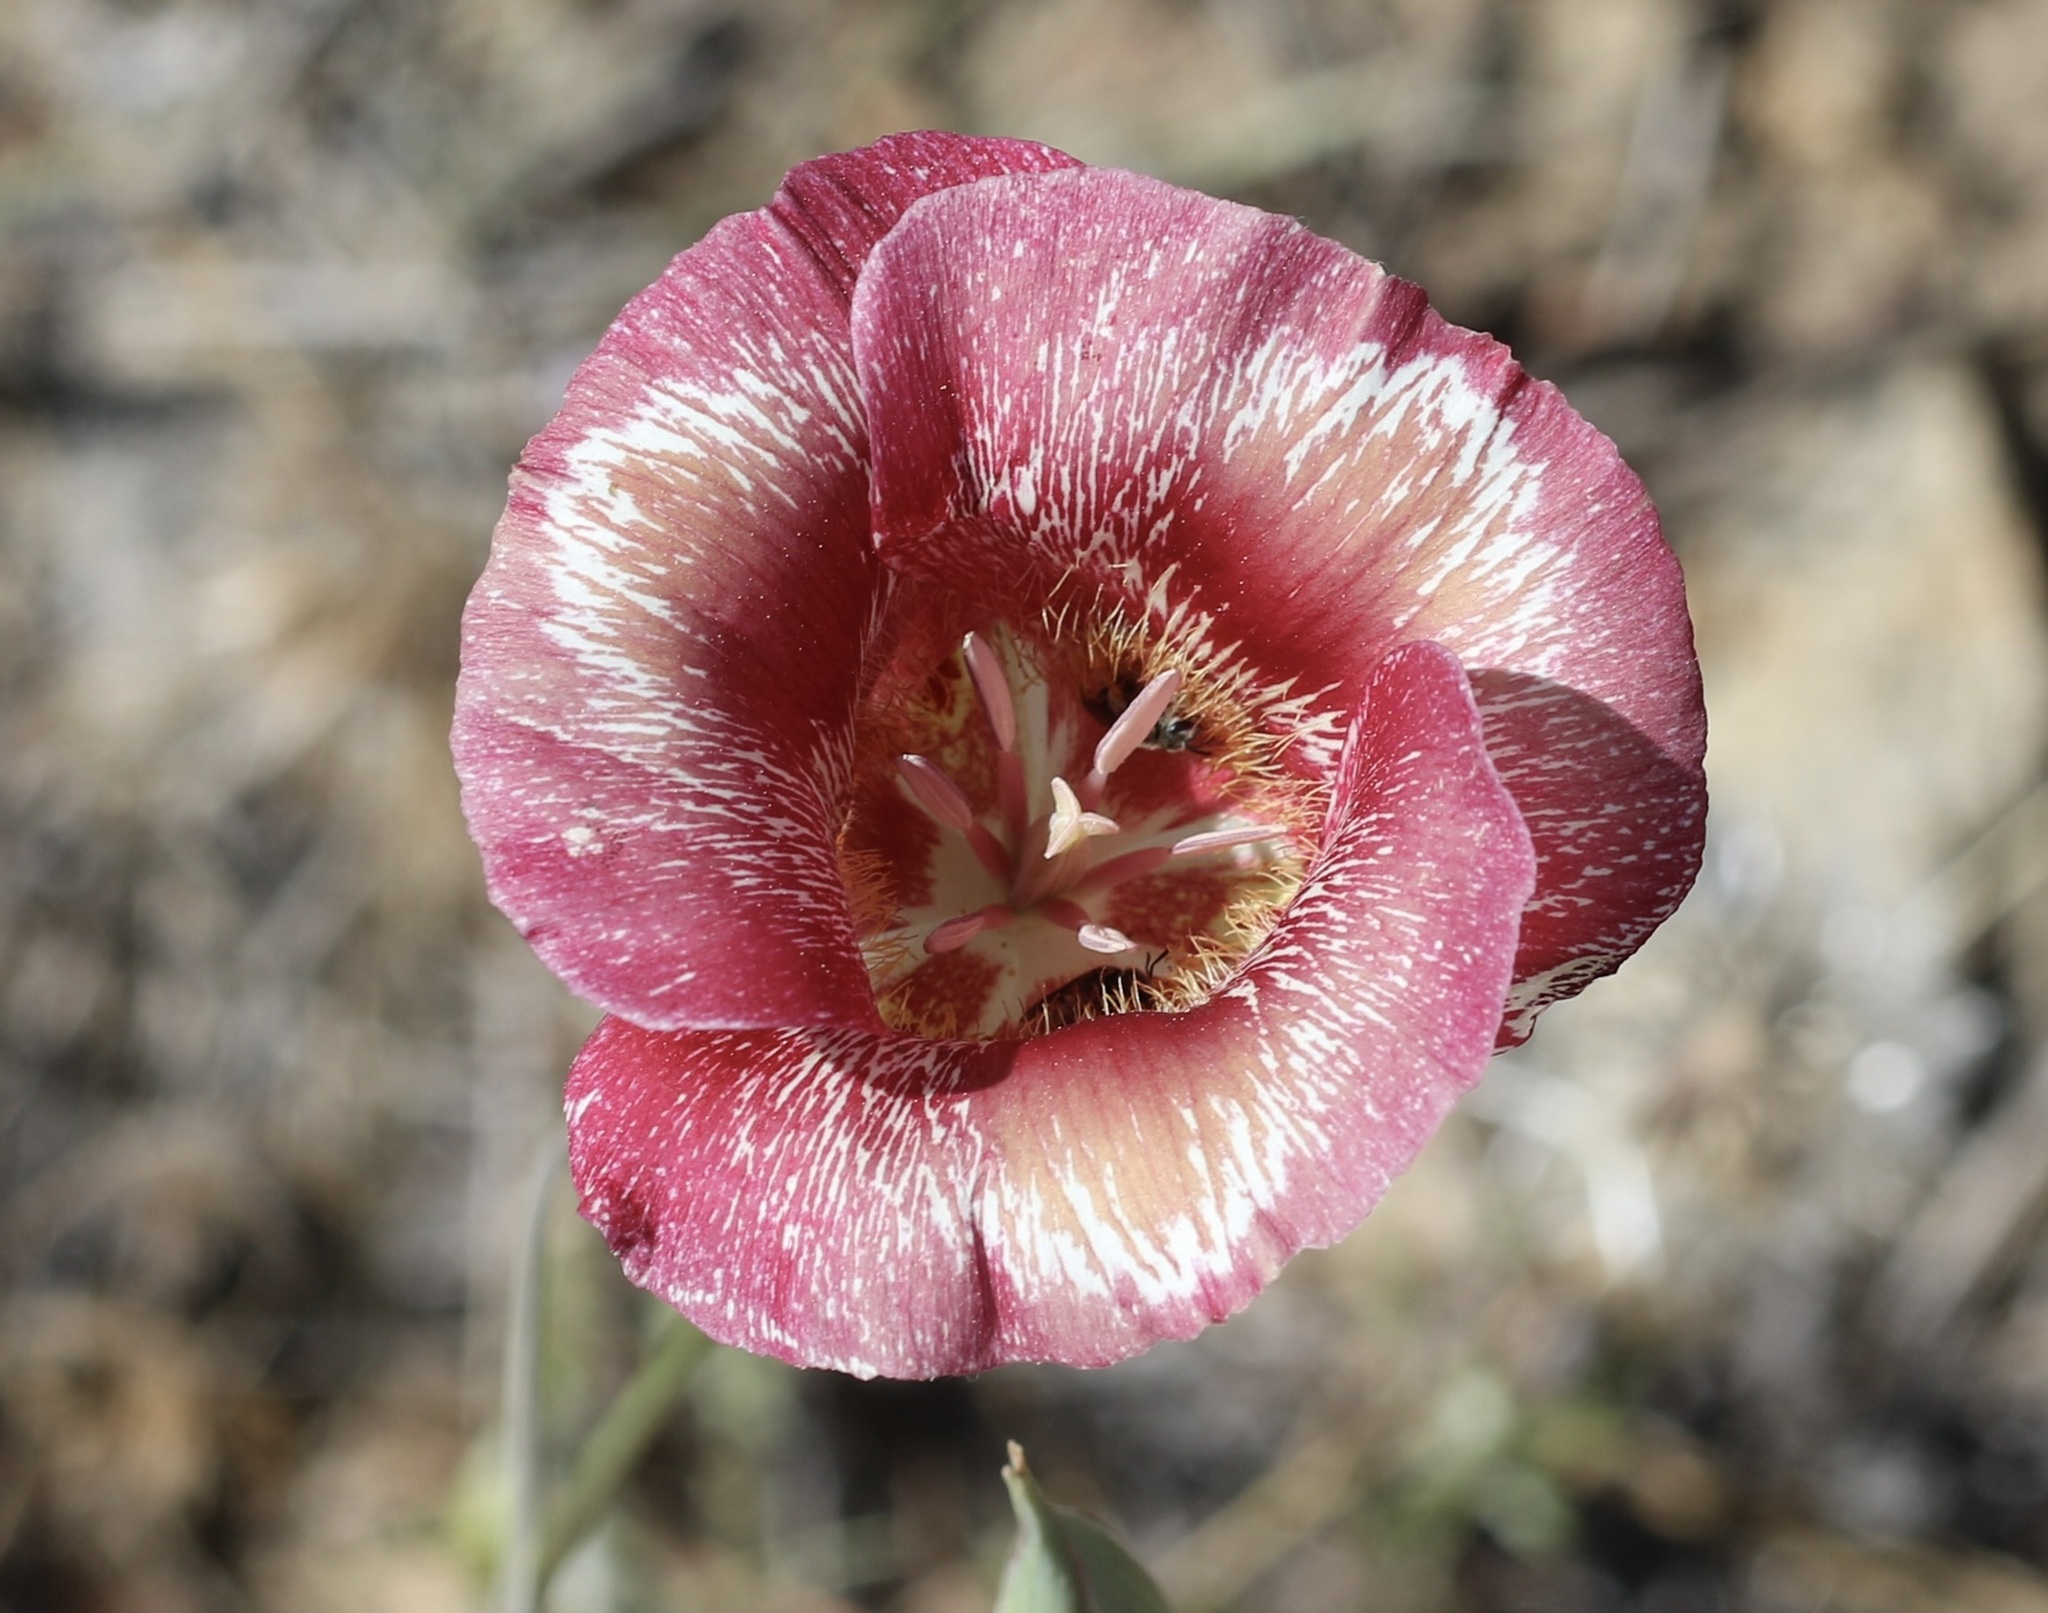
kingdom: Plantae
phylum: Tracheophyta
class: Liliopsida
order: Liliales
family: Liliaceae
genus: Calochortus
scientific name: Calochortus venustus
